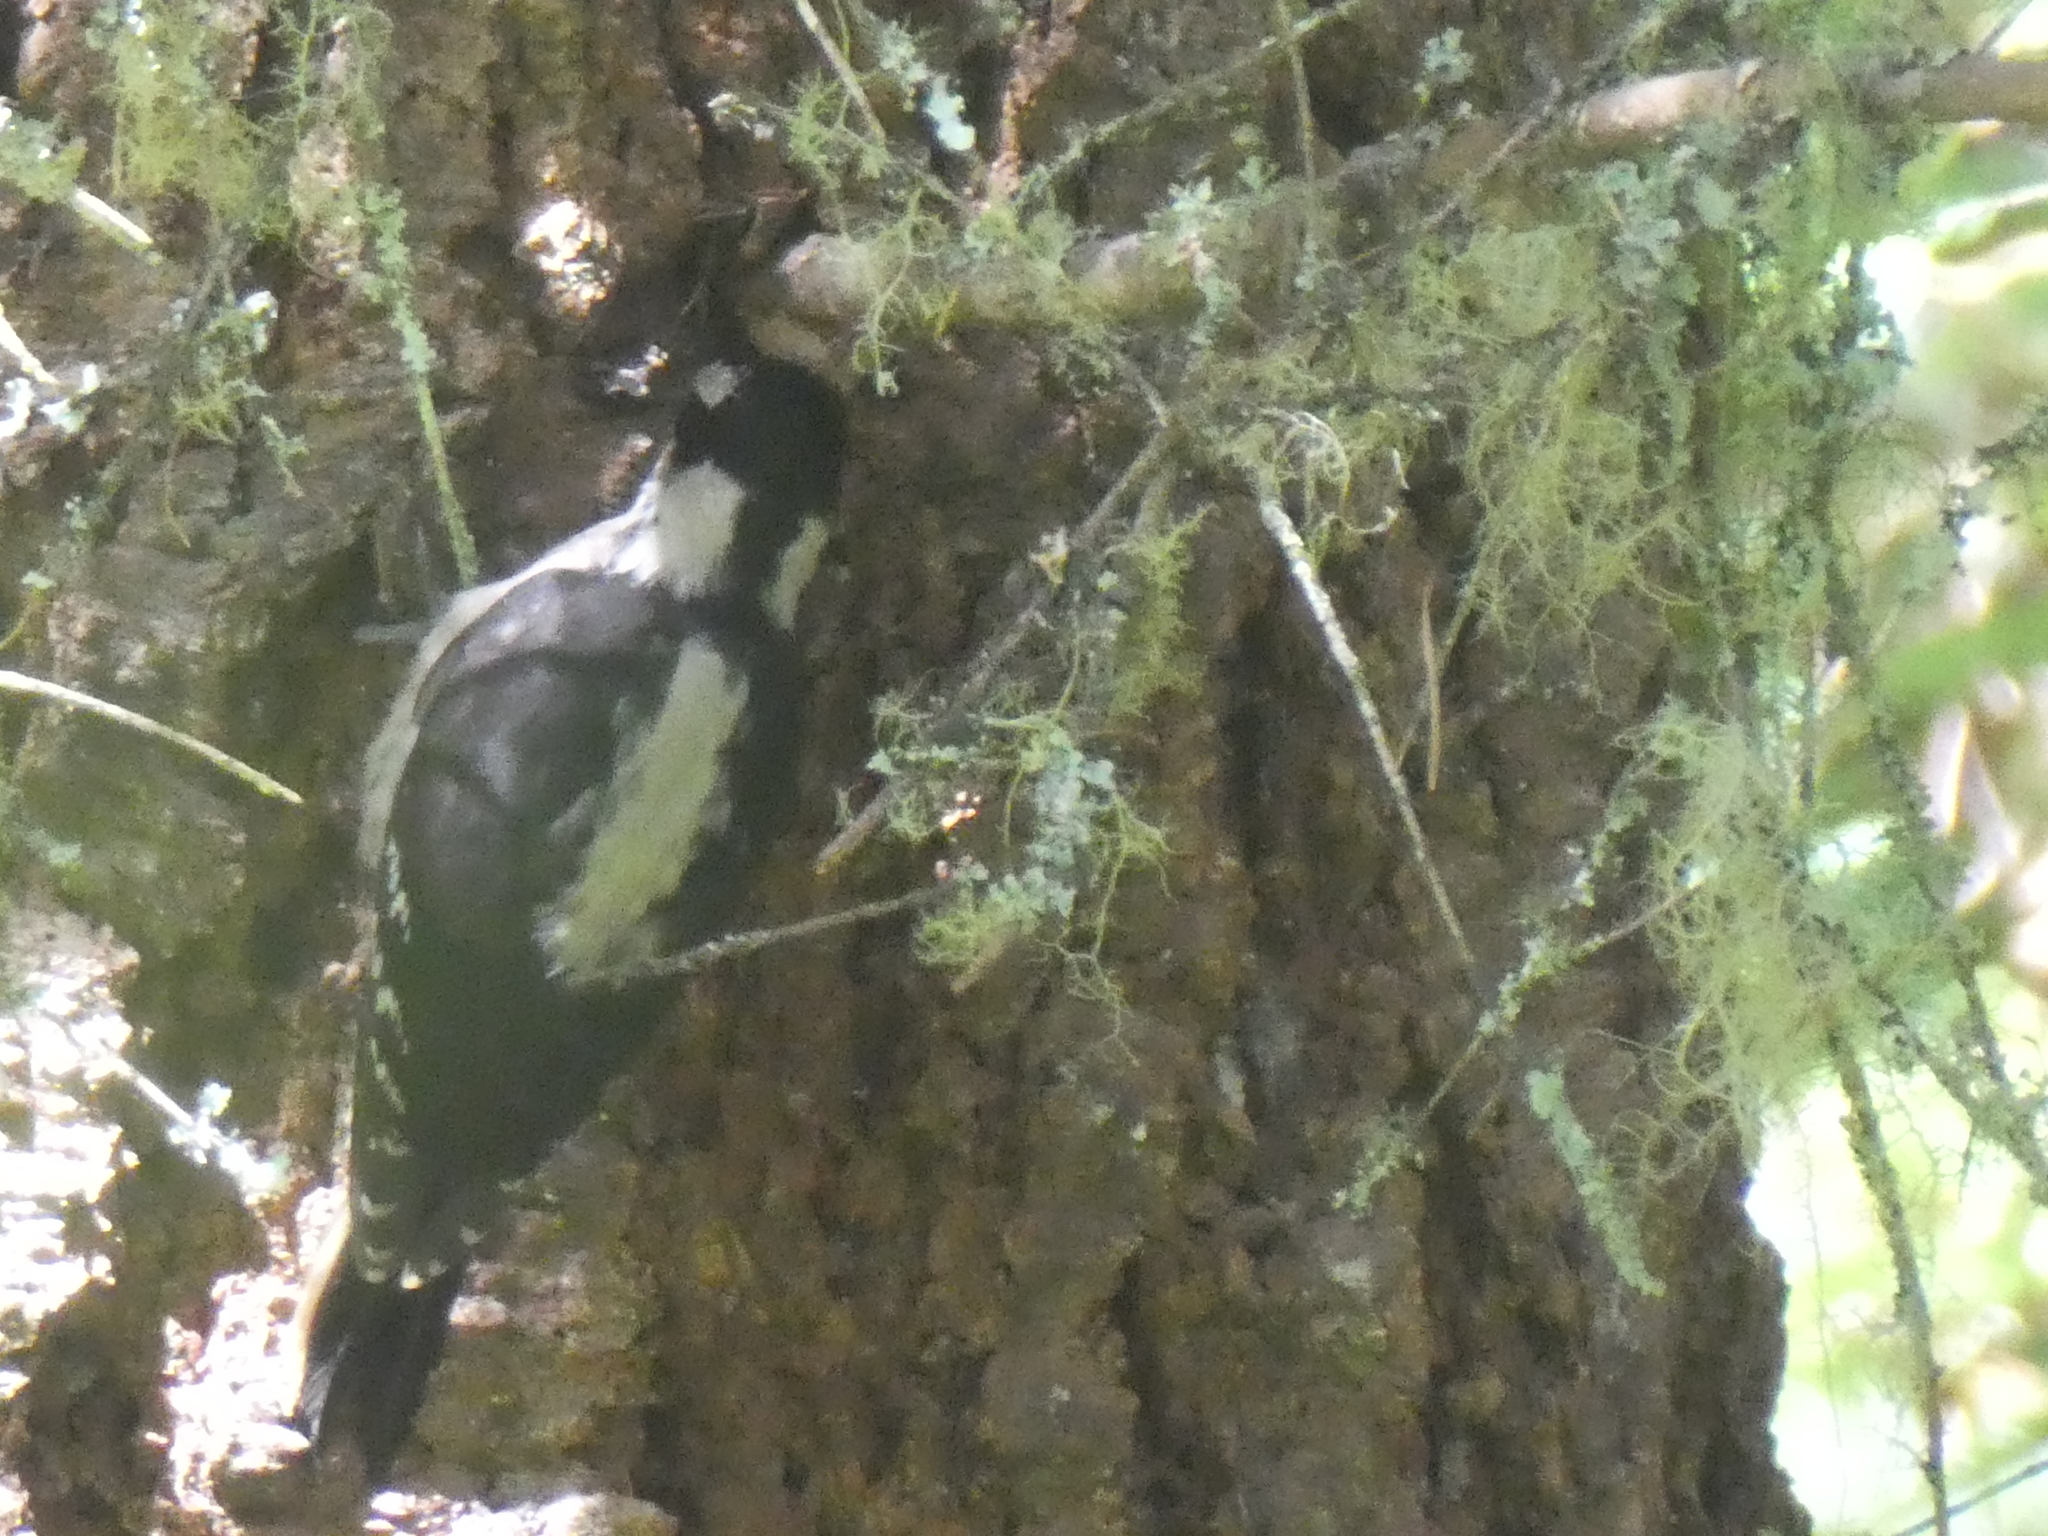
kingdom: Animalia
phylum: Chordata
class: Aves
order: Piciformes
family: Picidae
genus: Leuconotopicus
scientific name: Leuconotopicus villosus
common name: Hairy woodpecker
